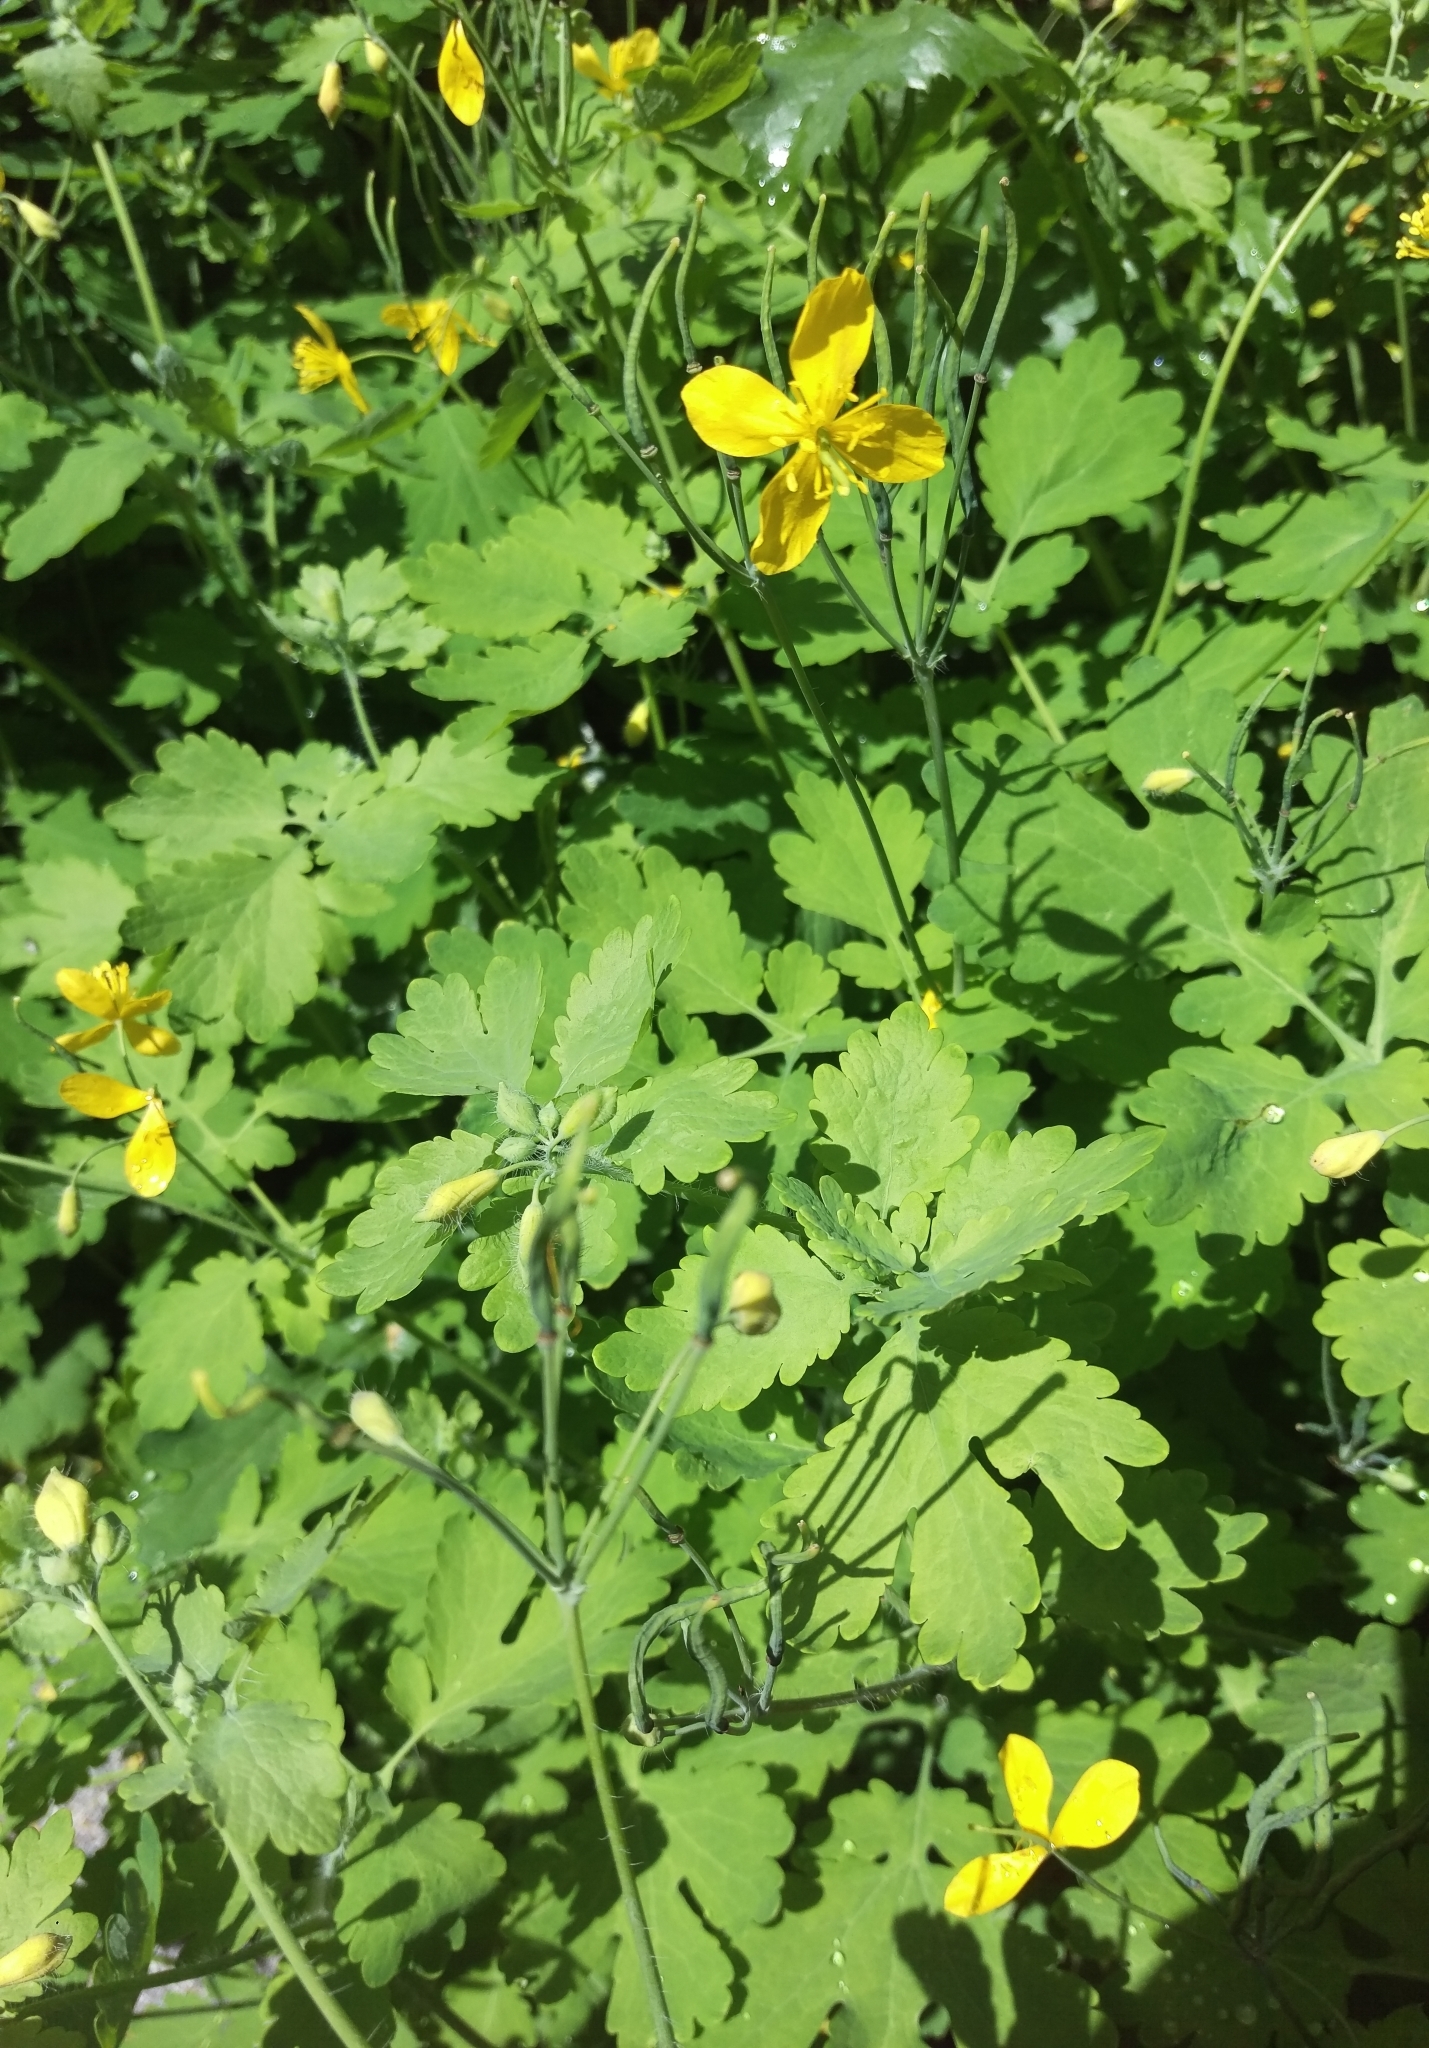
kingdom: Plantae
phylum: Tracheophyta
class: Magnoliopsida
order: Ranunculales
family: Papaveraceae
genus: Chelidonium
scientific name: Chelidonium majus
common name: Greater celandine
